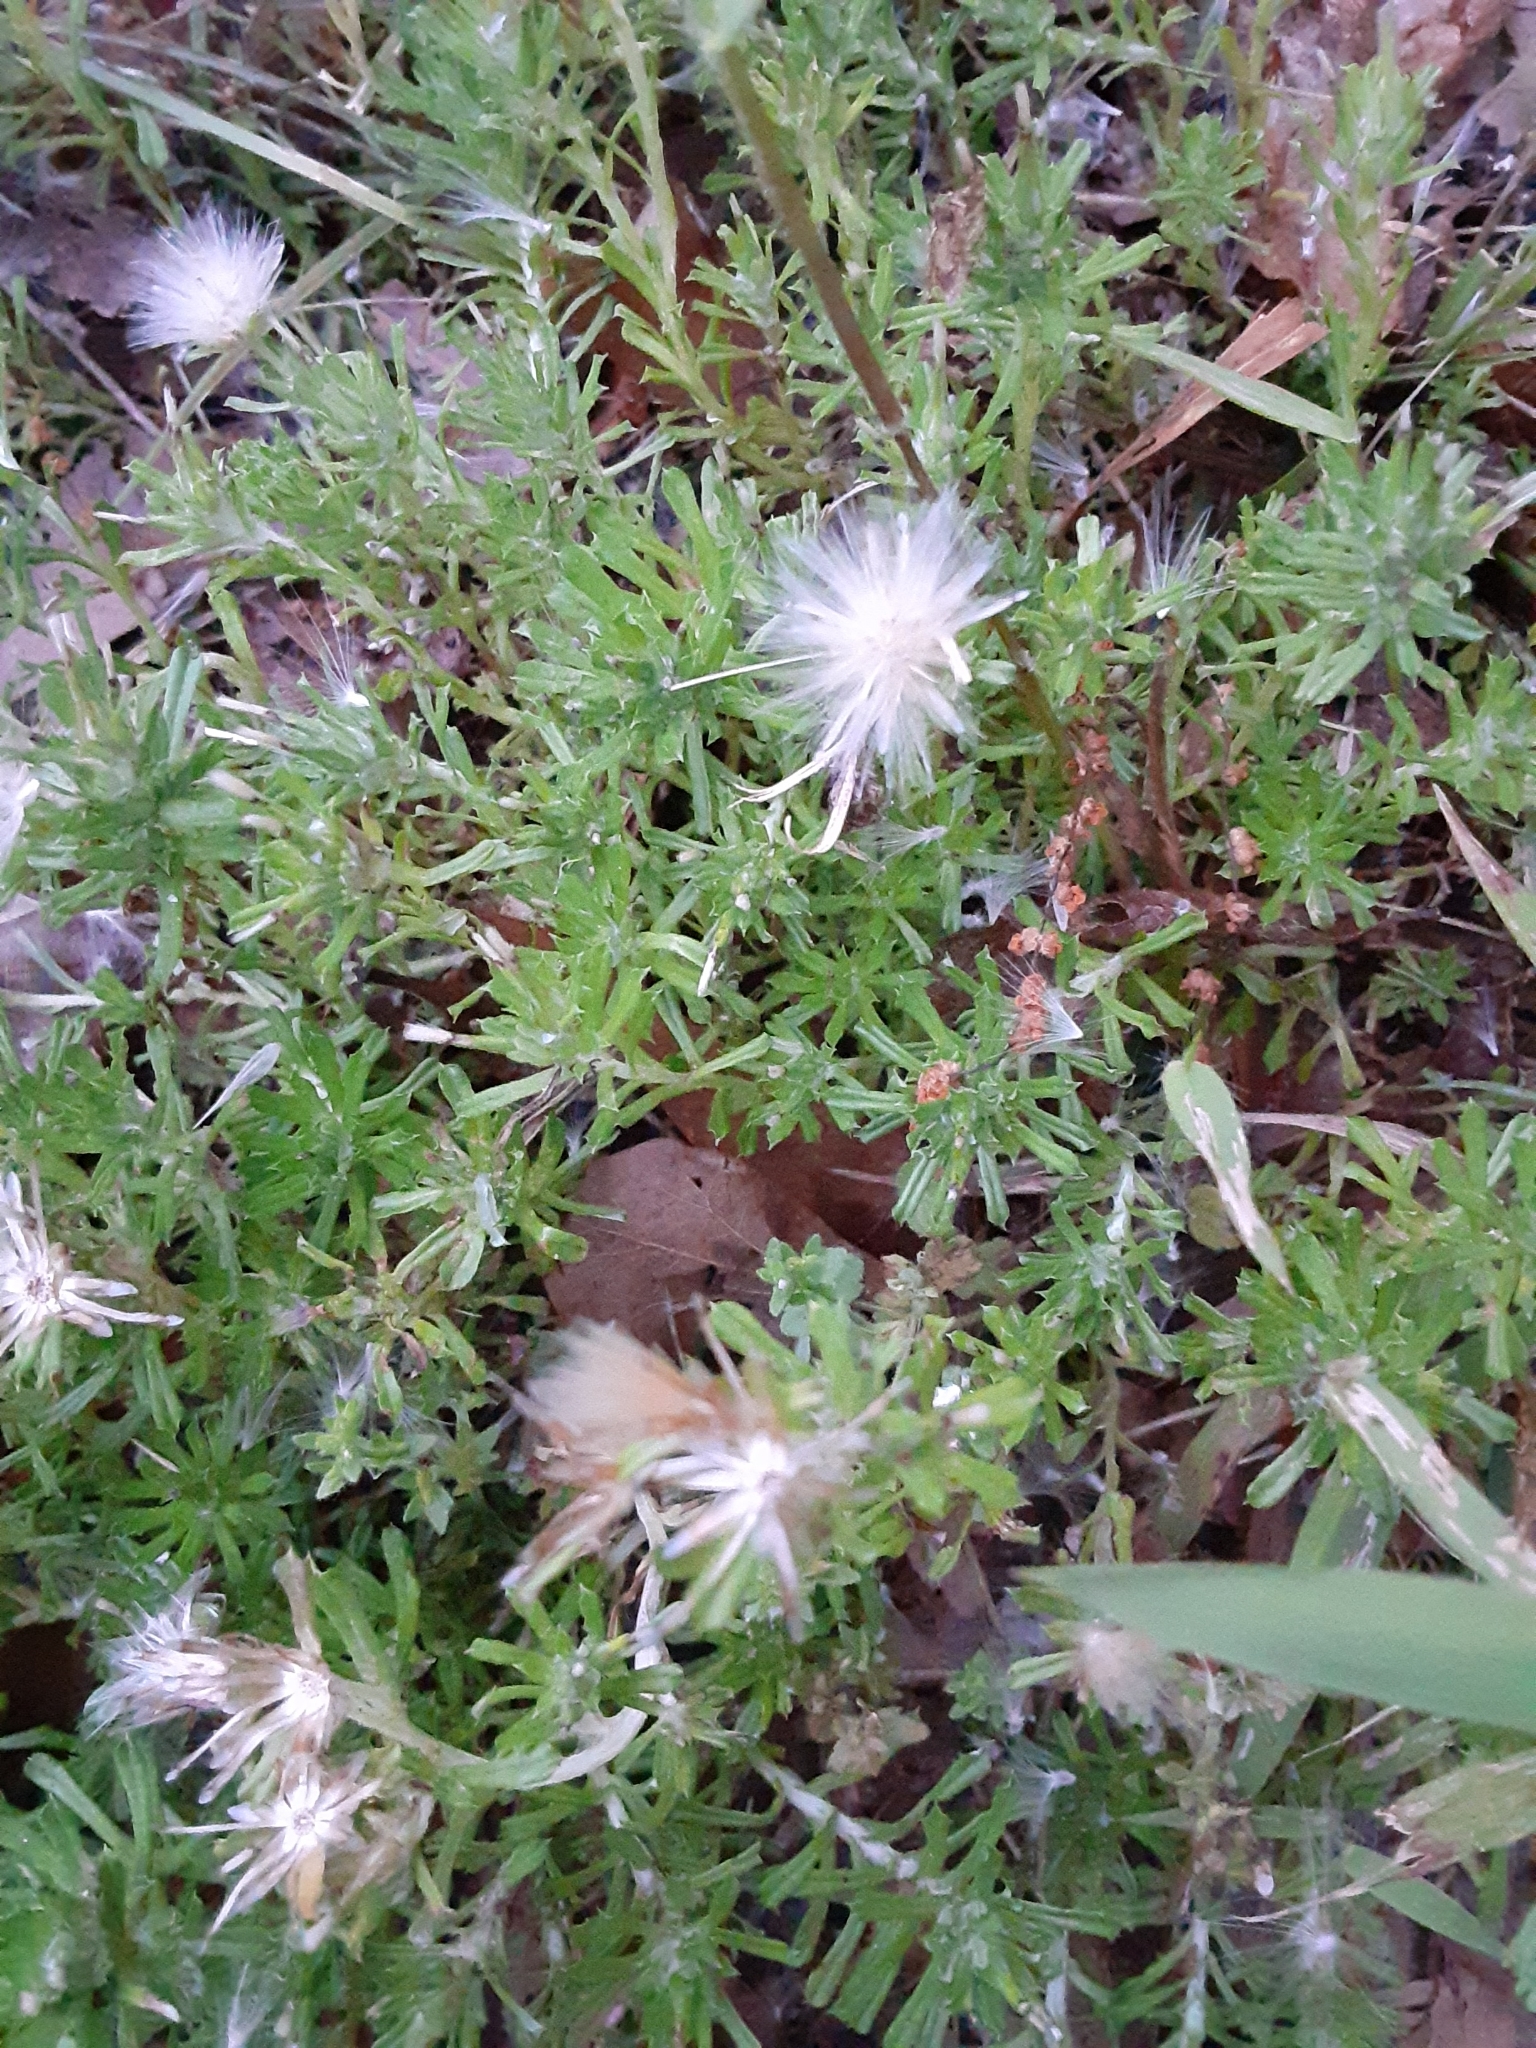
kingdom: Plantae
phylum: Tracheophyta
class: Magnoliopsida
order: Asterales
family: Asteraceae
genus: Facelis
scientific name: Facelis retusa
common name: Annual trampweed
